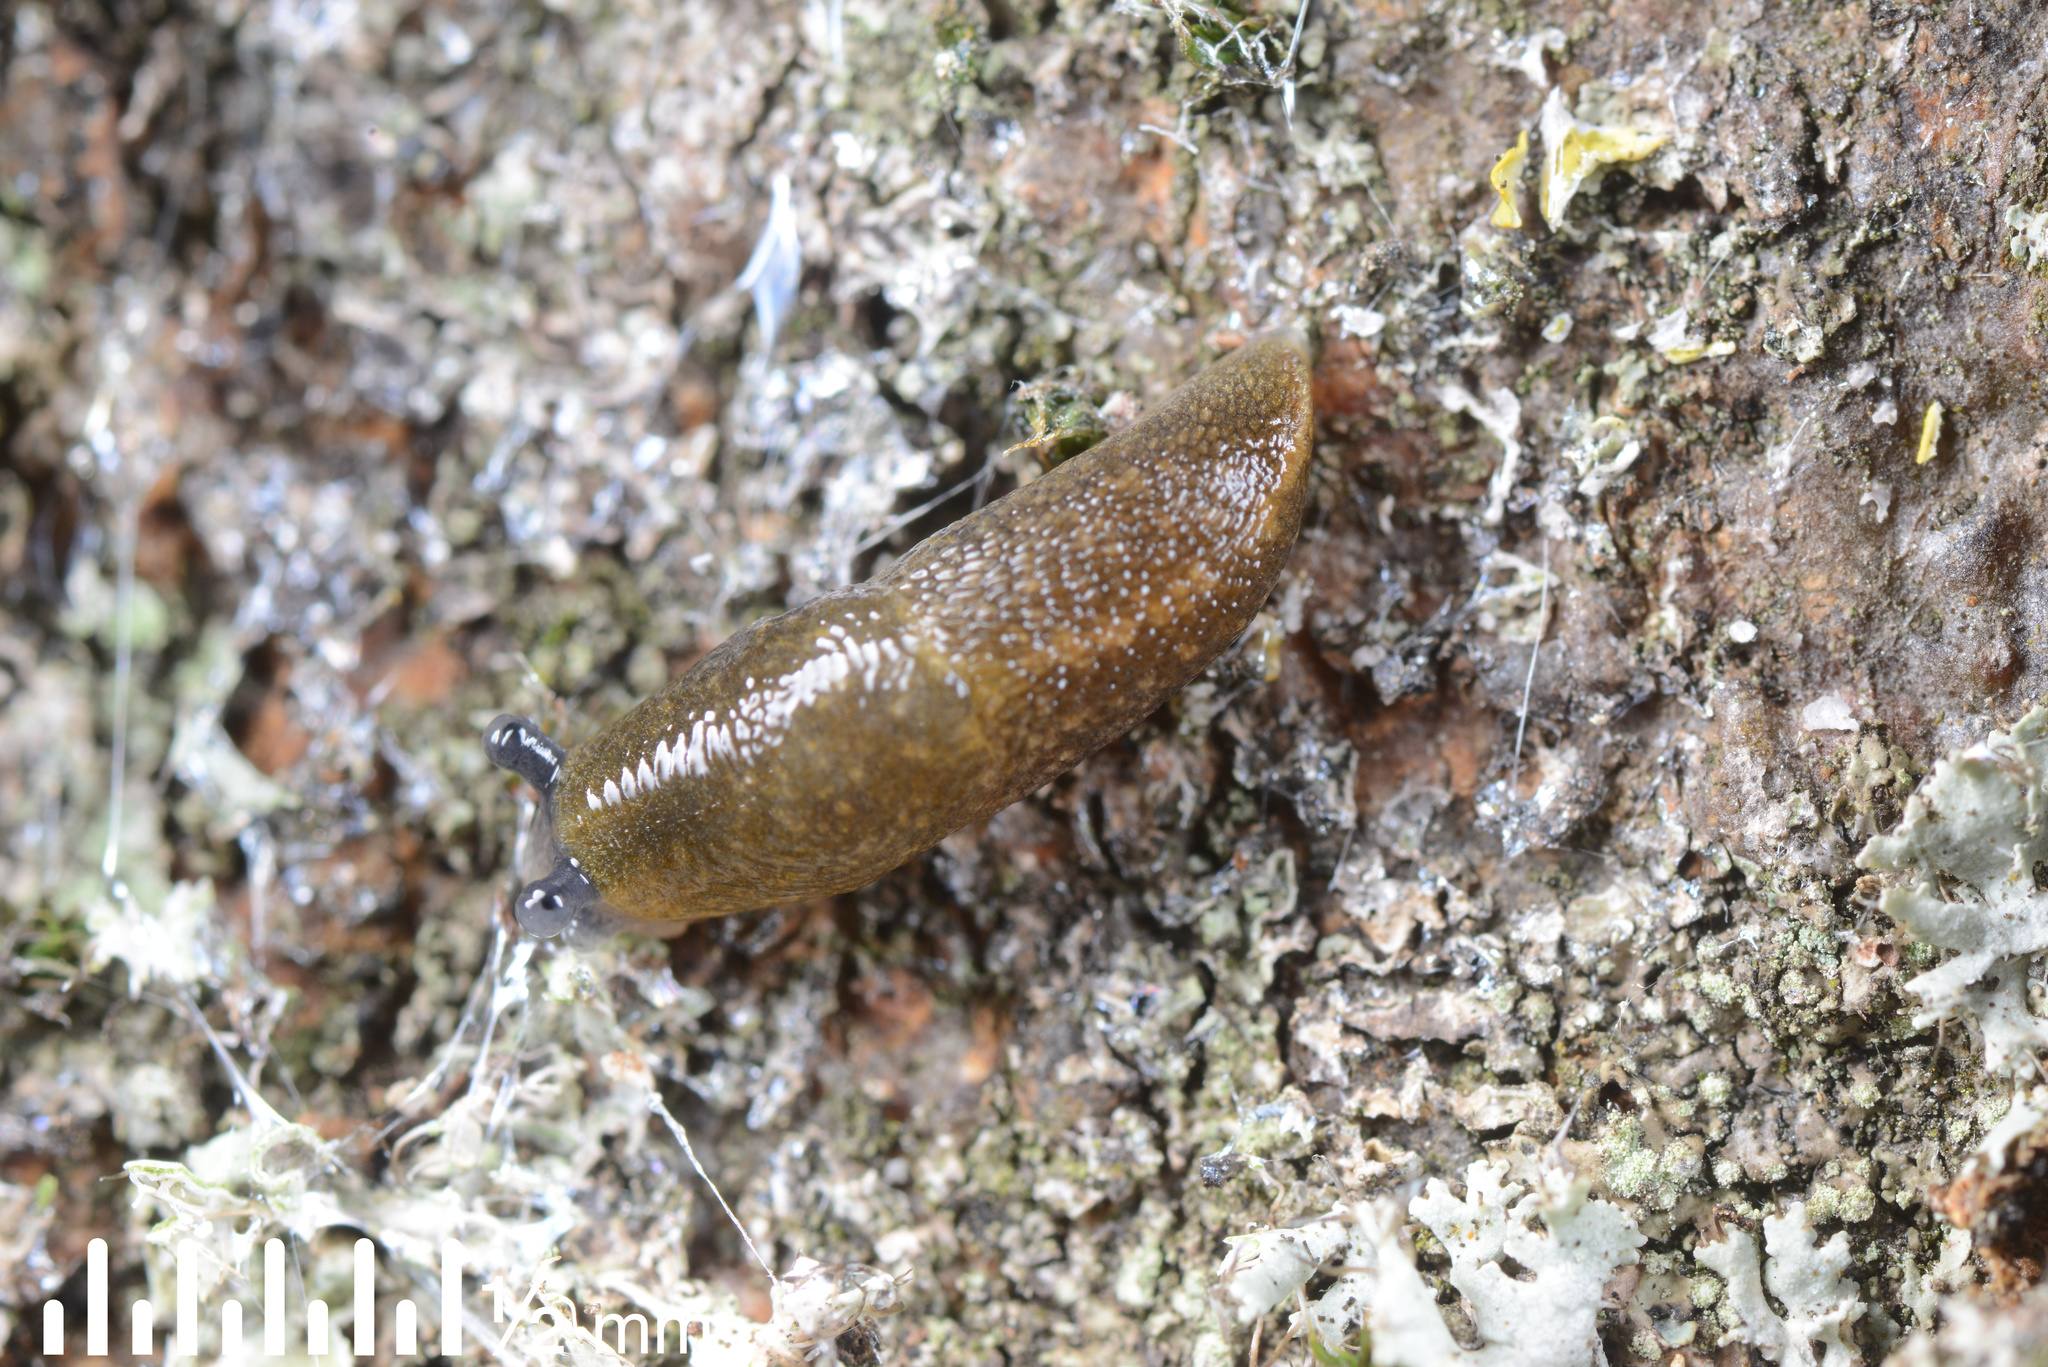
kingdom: Animalia
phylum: Mollusca
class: Gastropoda
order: Stylommatophora
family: Limacidae
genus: Limacus
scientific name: Limacus flavus
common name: Yellow gardenslug
